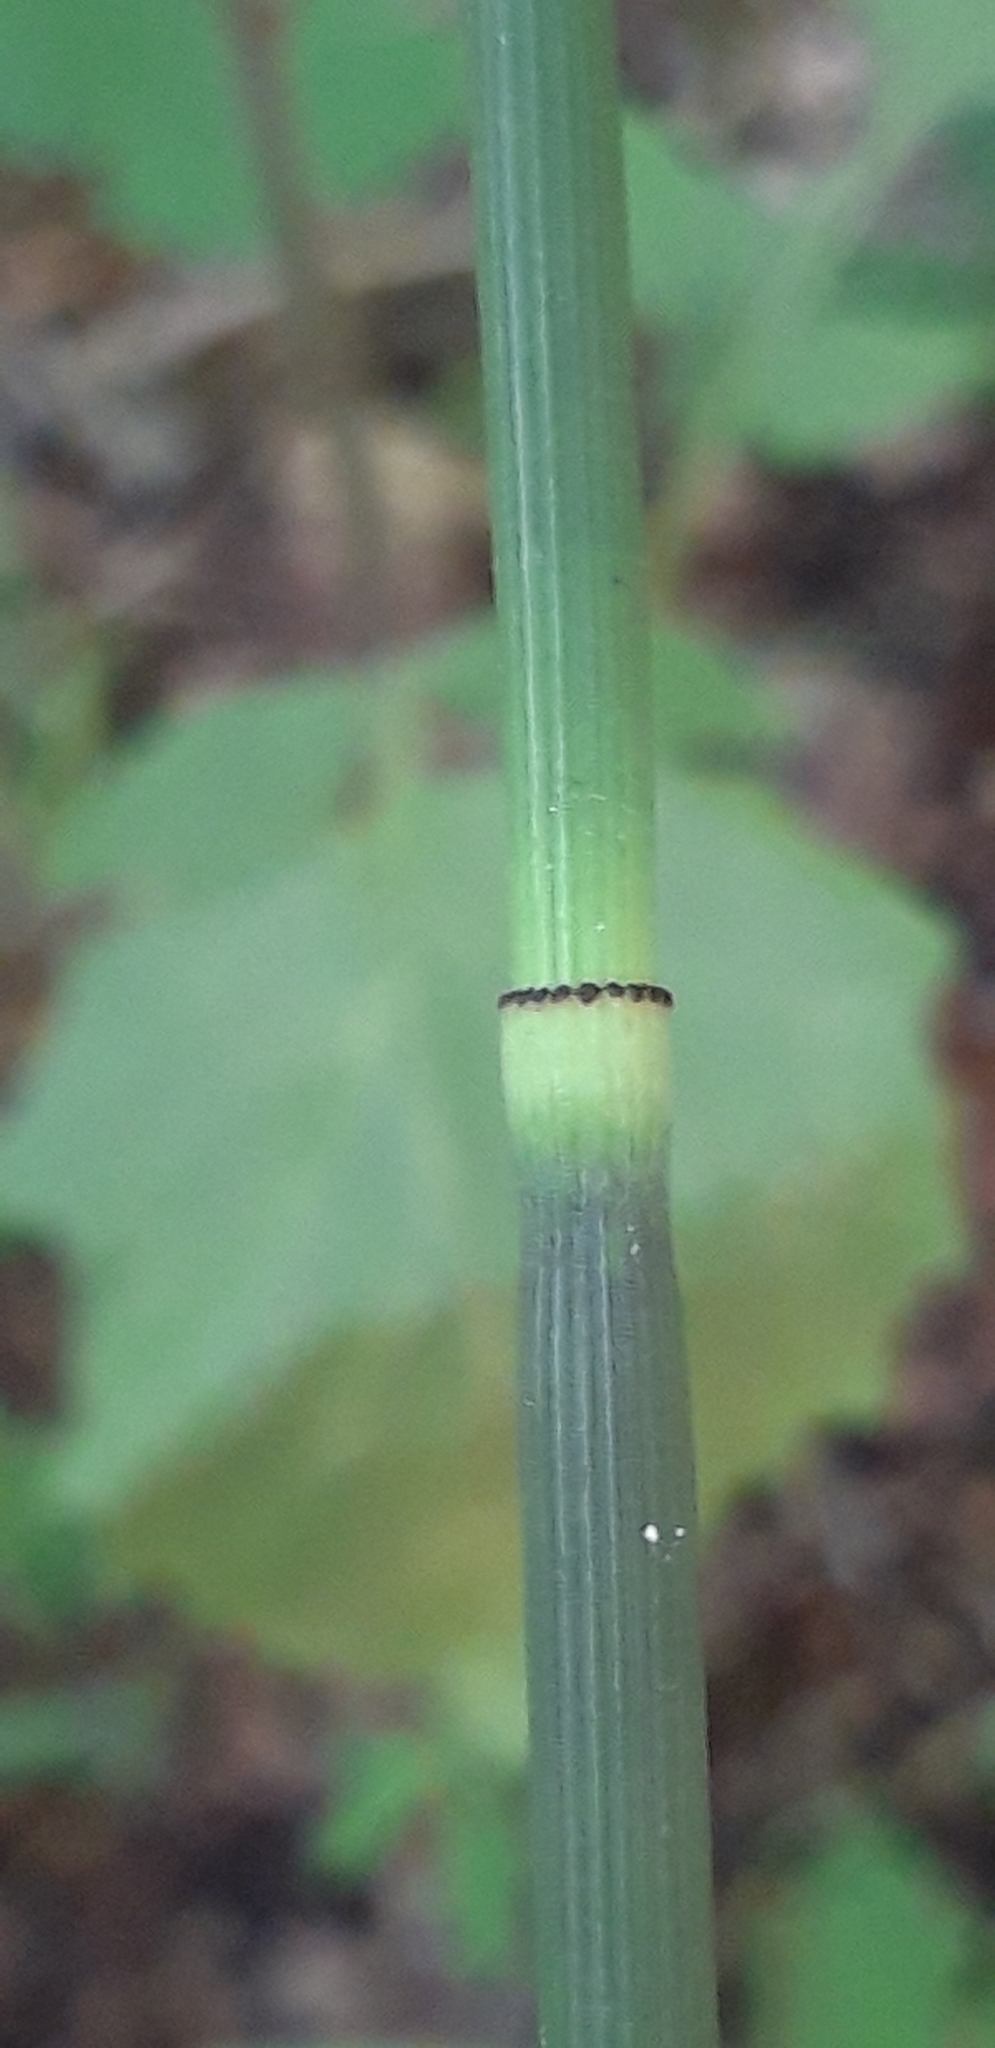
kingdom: Plantae
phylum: Tracheophyta
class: Polypodiopsida
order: Equisetales
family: Equisetaceae
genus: Equisetum
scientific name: Equisetum hyemale
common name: Rough horsetail
